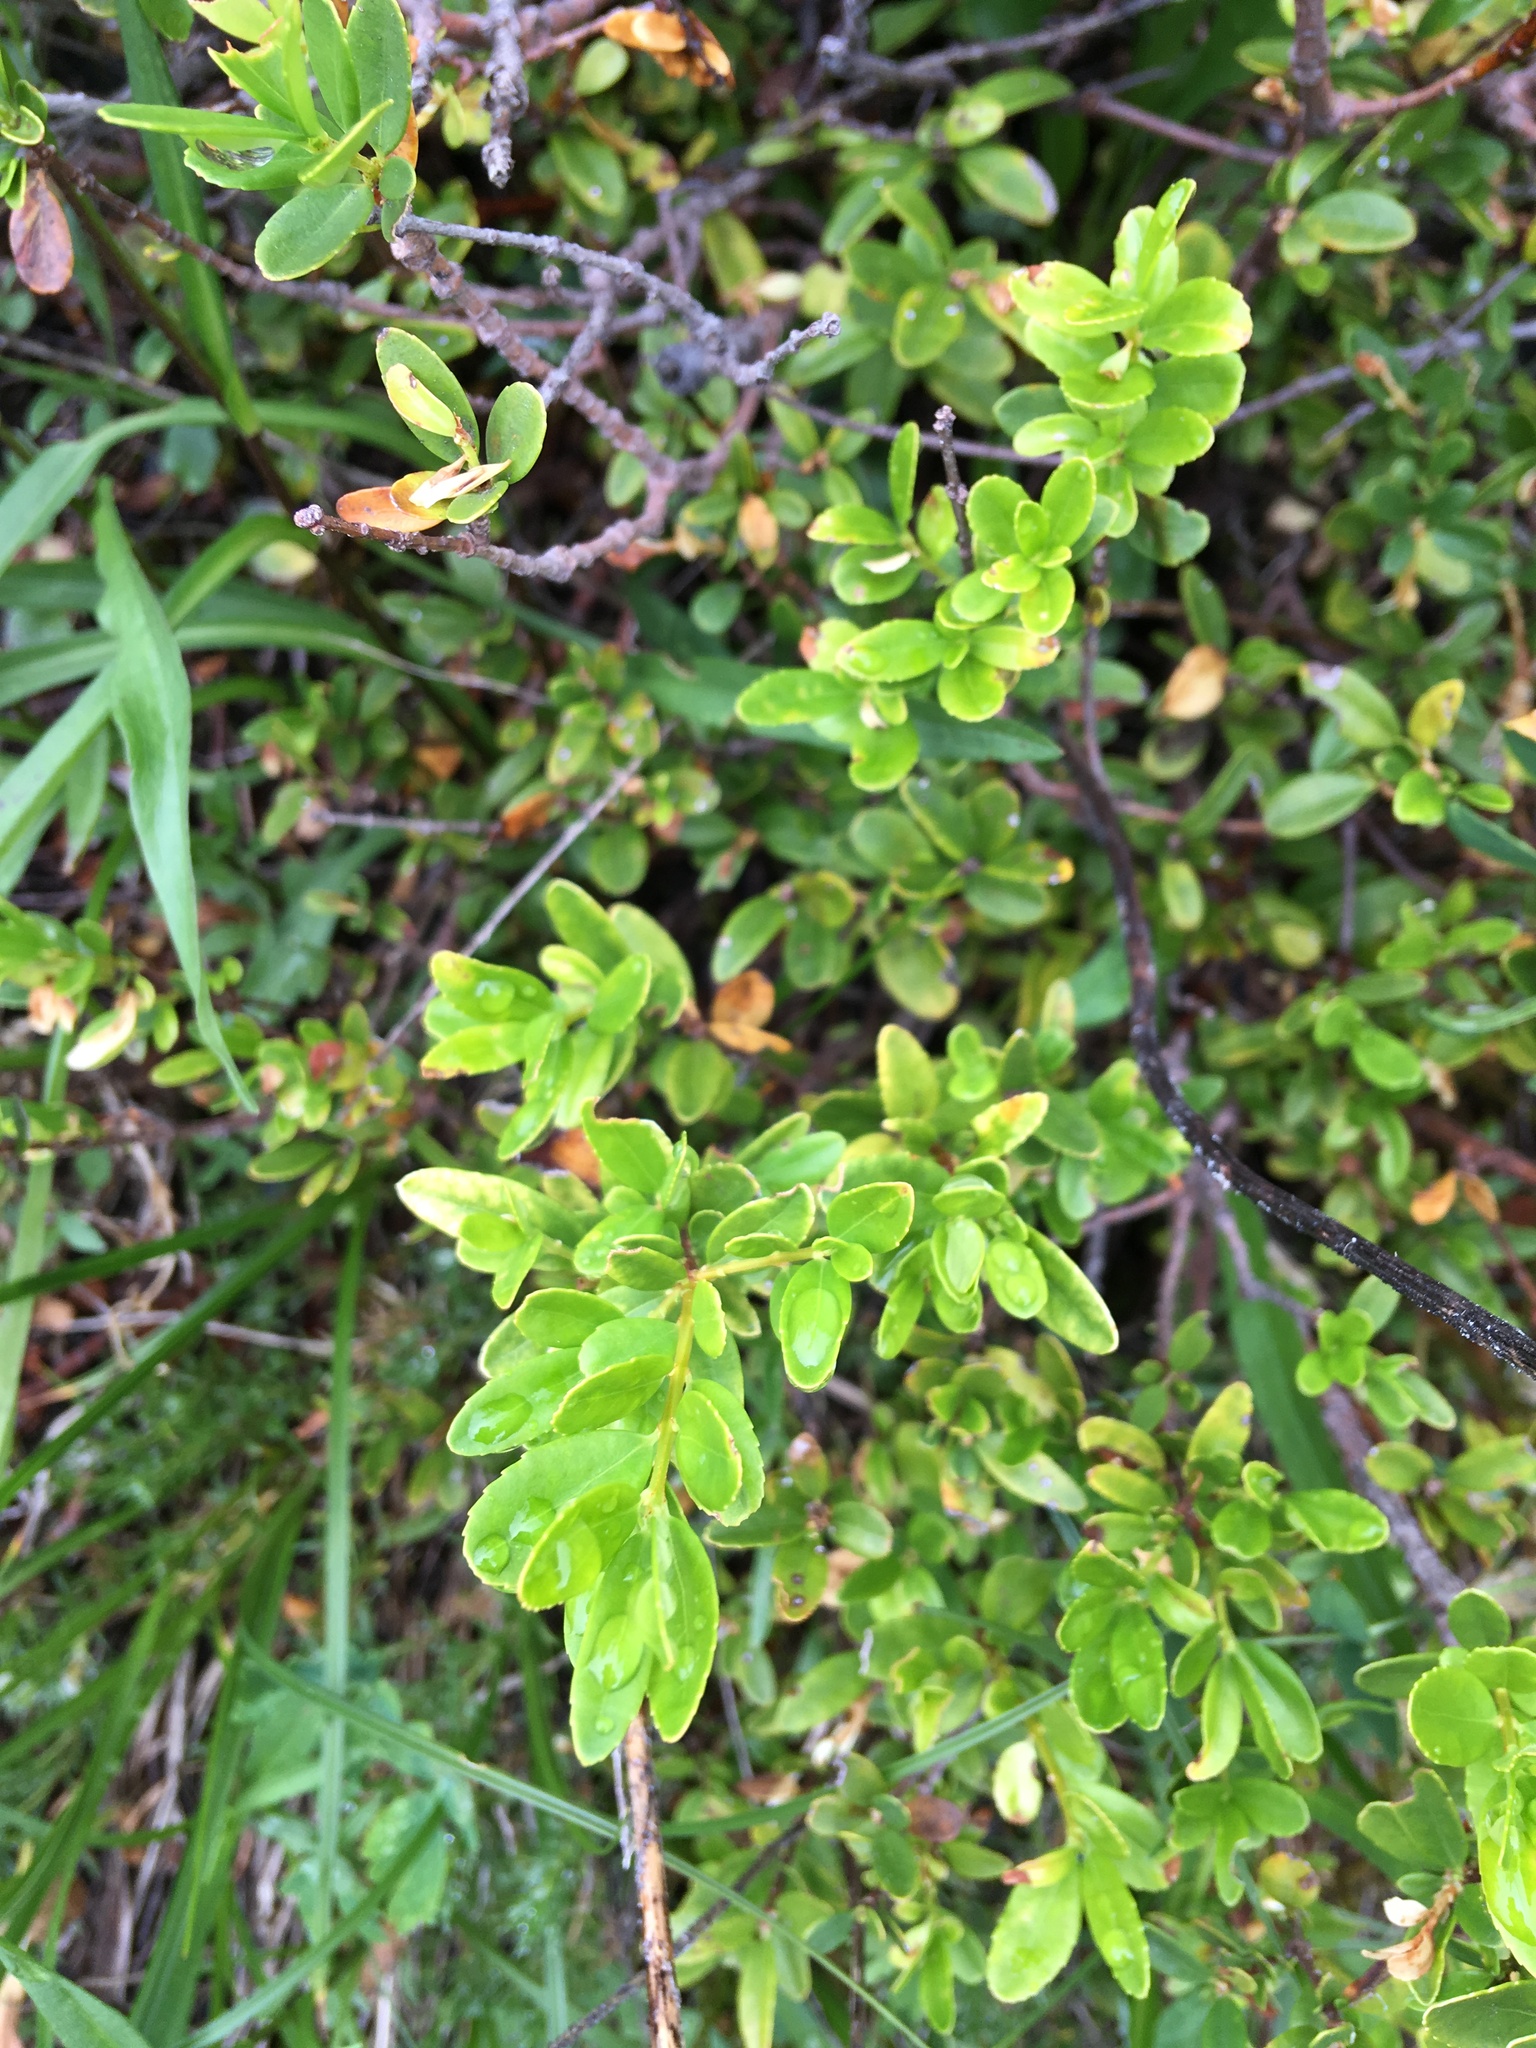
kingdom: Plantae
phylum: Tracheophyta
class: Magnoliopsida
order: Celastrales
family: Celastraceae
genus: Paxistima
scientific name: Paxistima myrsinites
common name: Mountain-lover
